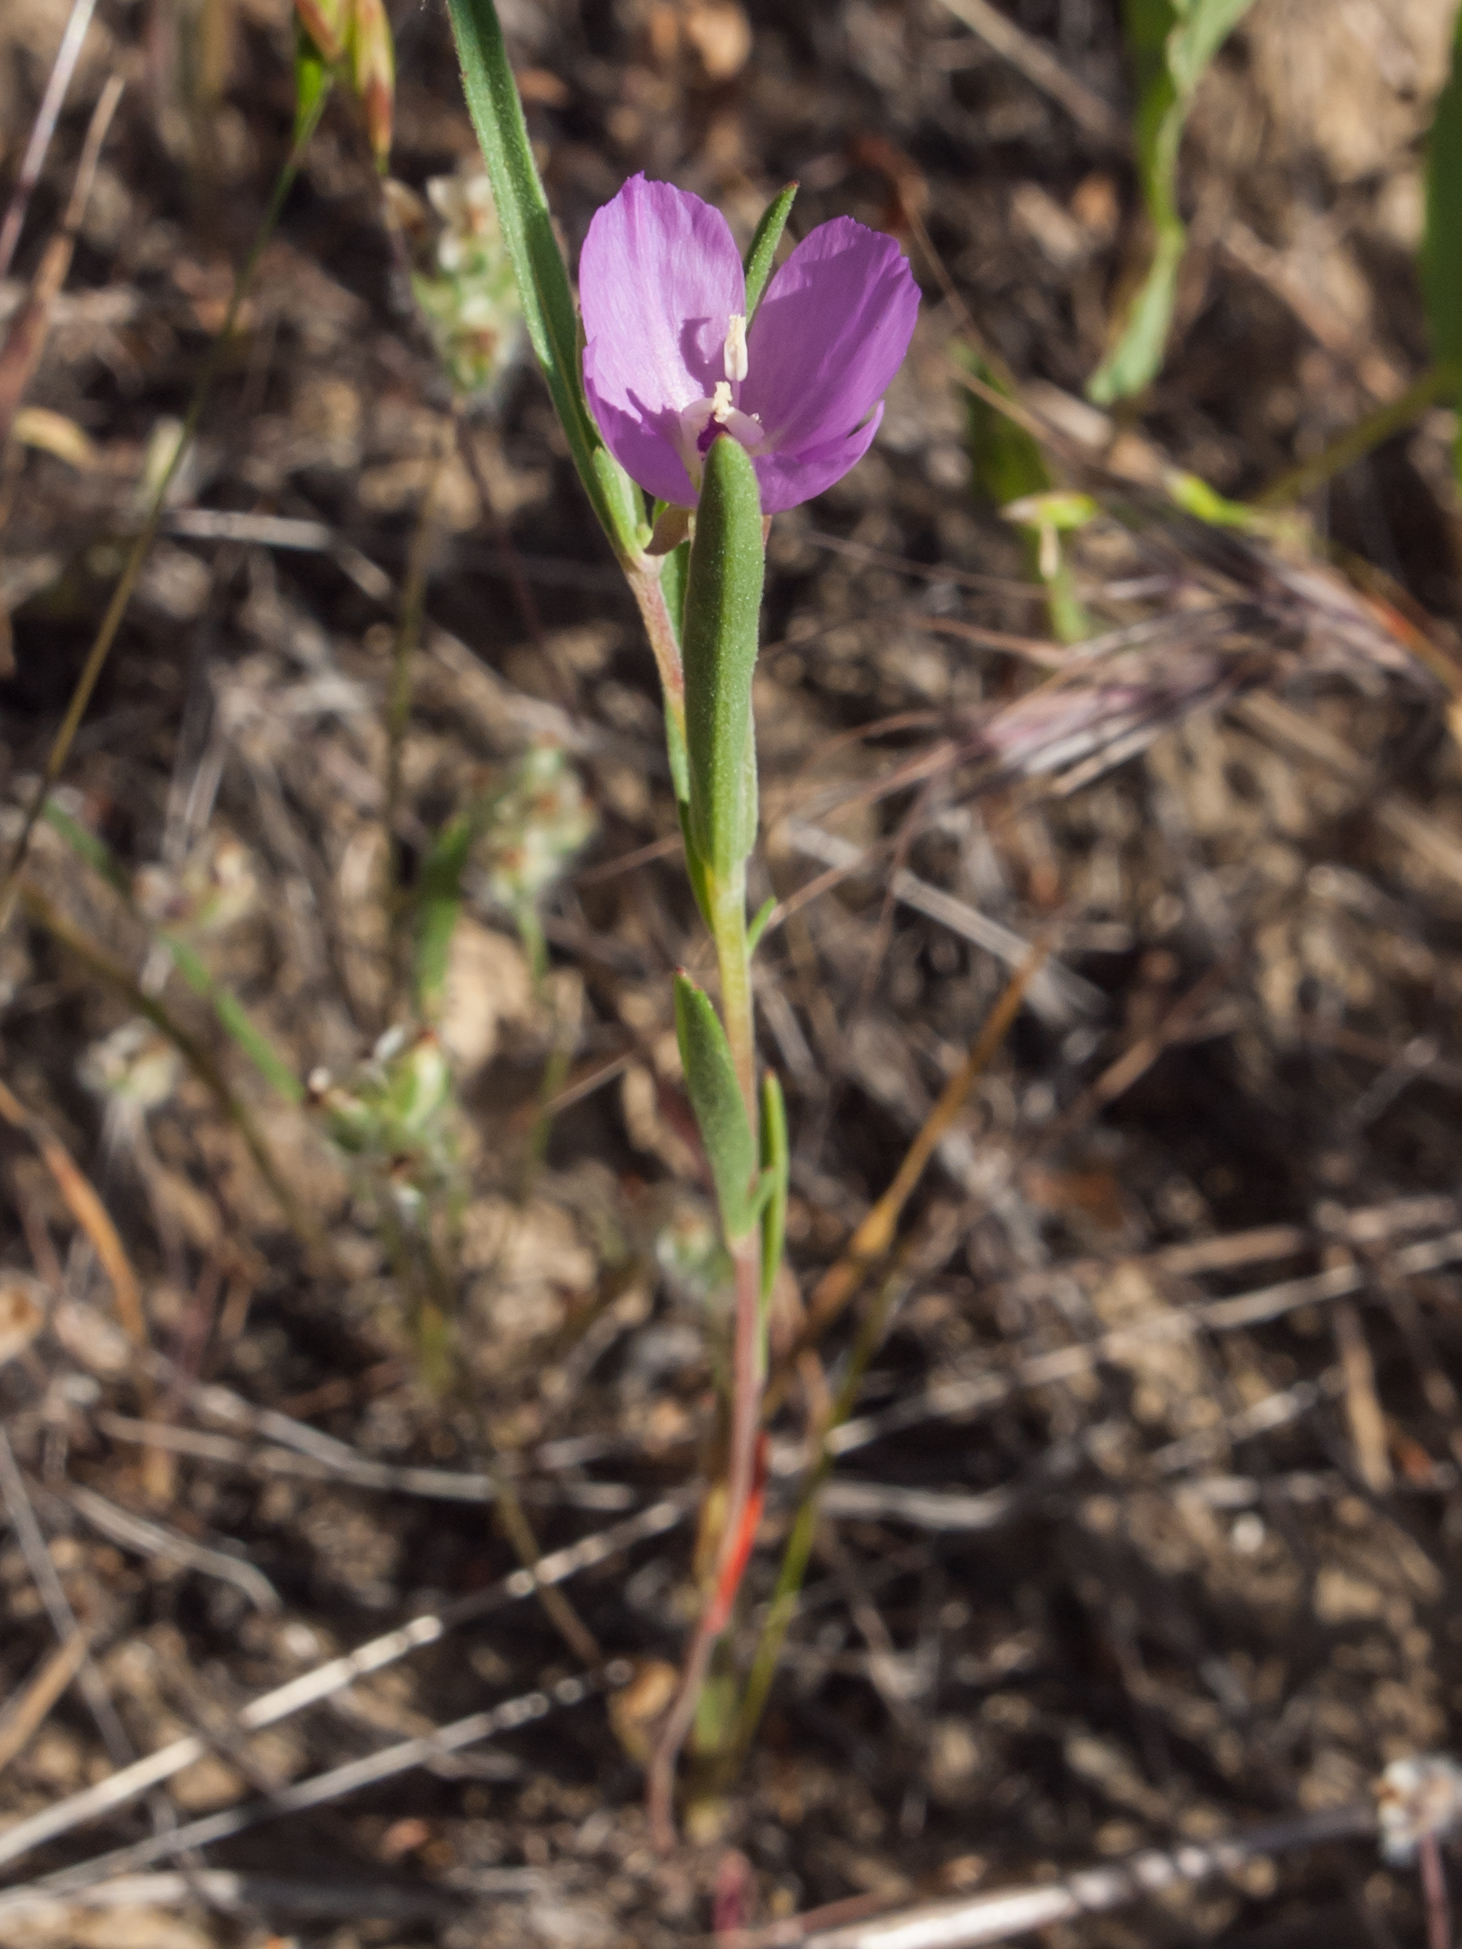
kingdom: Plantae
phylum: Tracheophyta
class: Magnoliopsida
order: Myrtales
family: Onagraceae
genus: Clarkia
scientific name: Clarkia purpurea
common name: Purple clarkia
